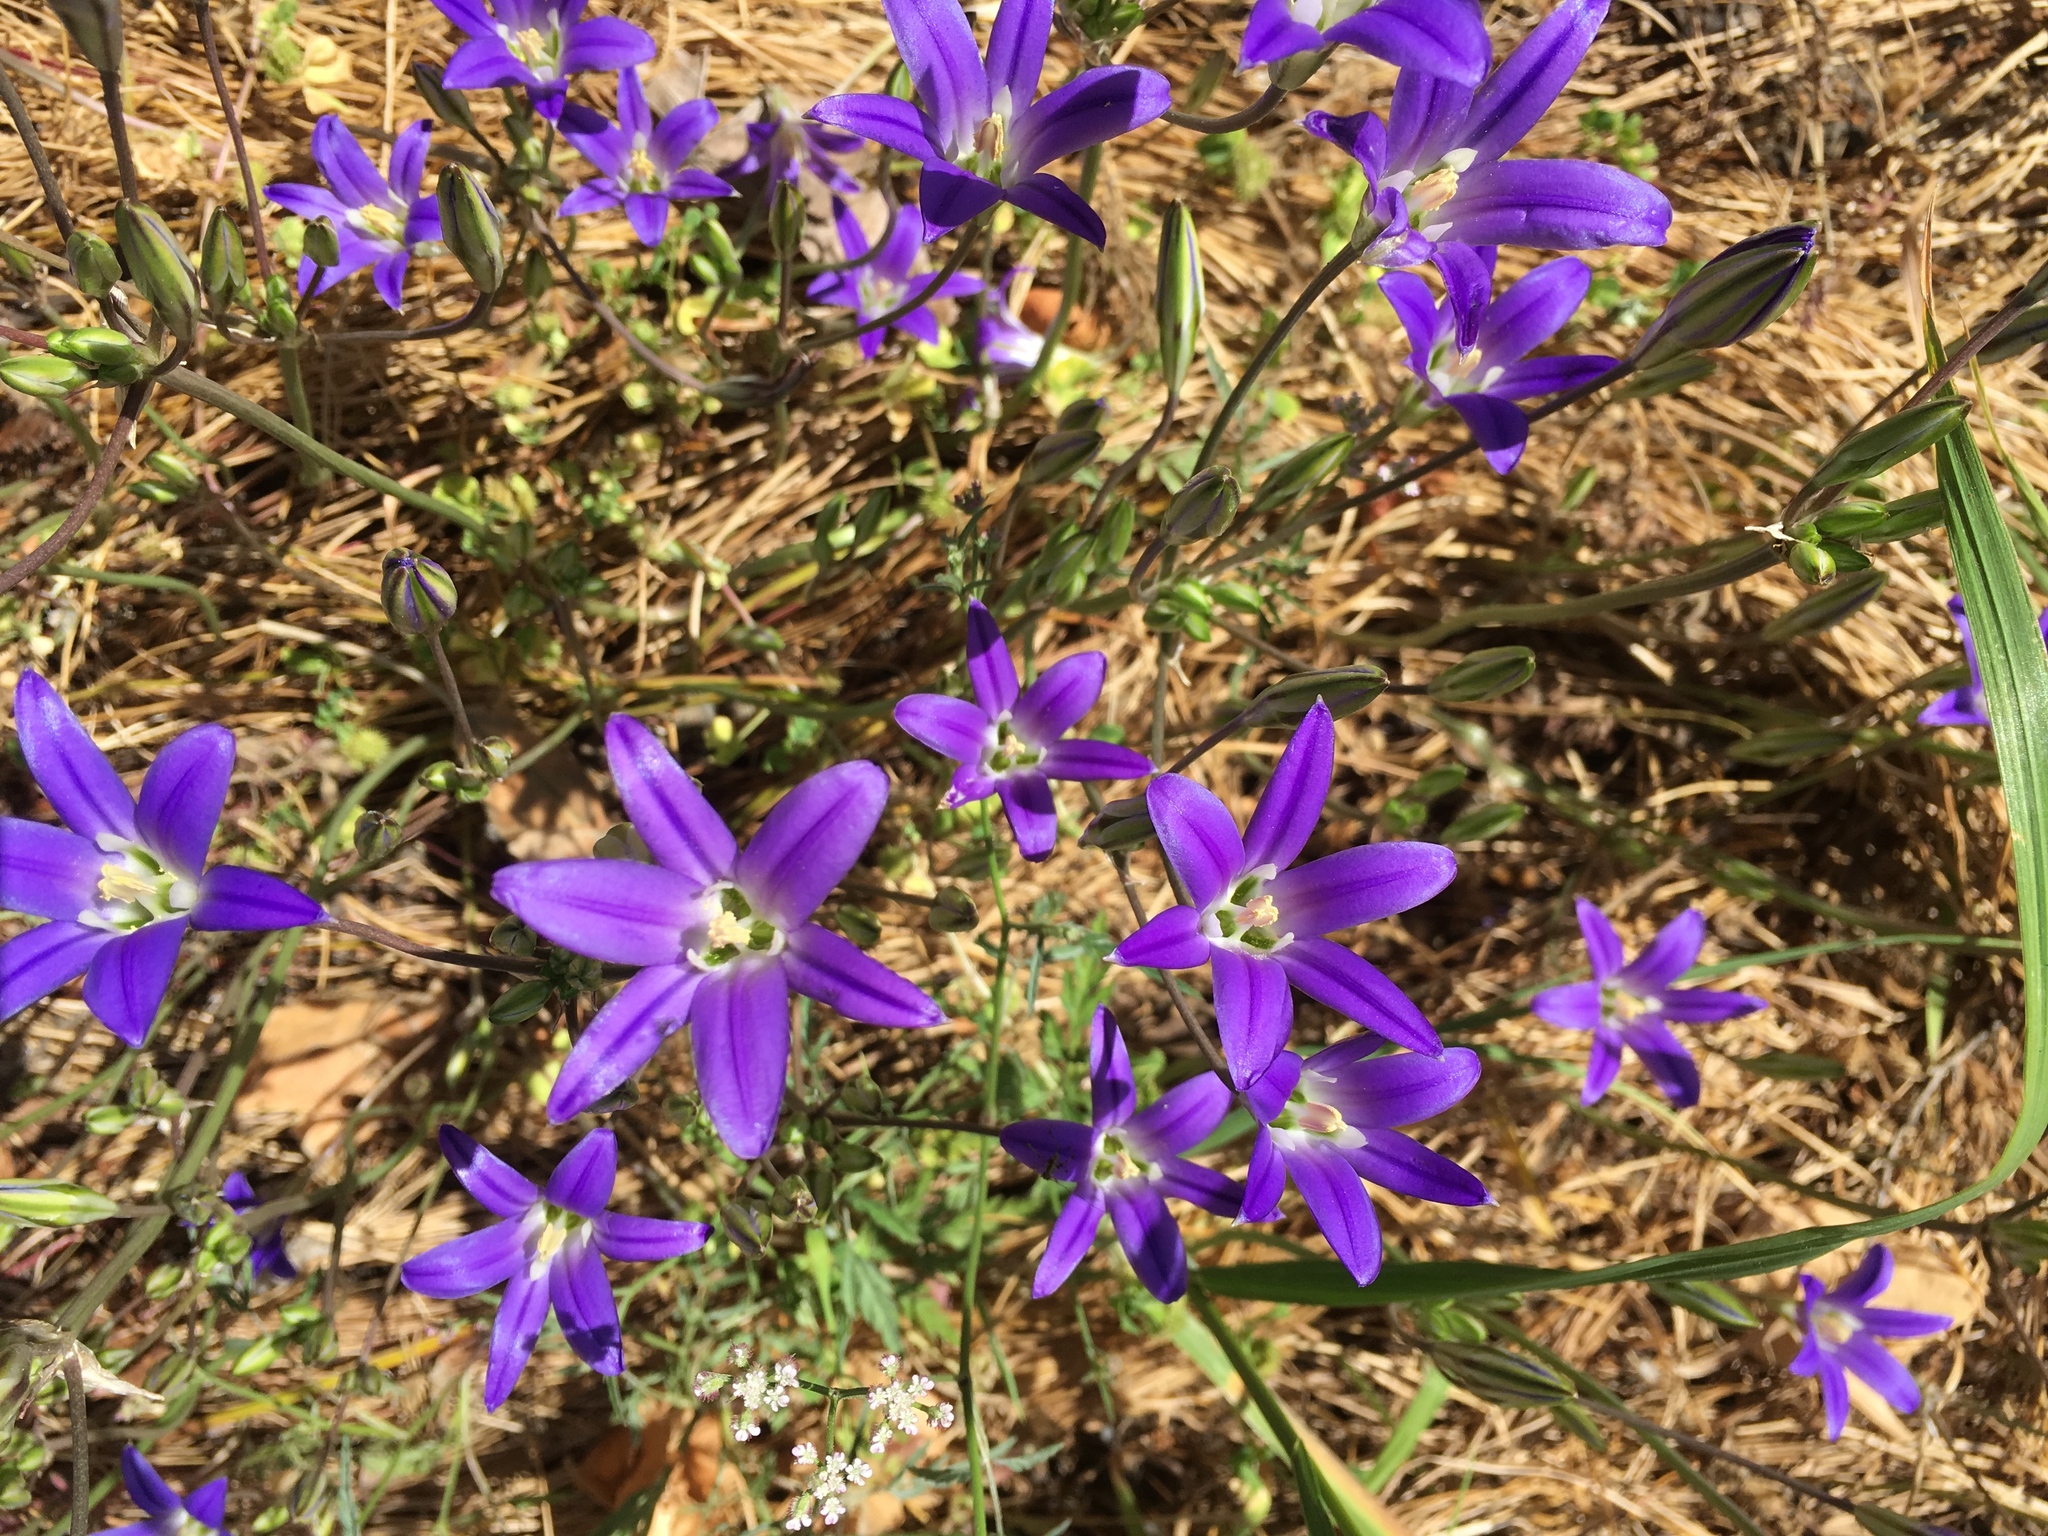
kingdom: Plantae
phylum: Tracheophyta
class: Liliopsida
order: Asparagales
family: Asparagaceae
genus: Brodiaea
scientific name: Brodiaea elegans
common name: Elegant cluster-lily
